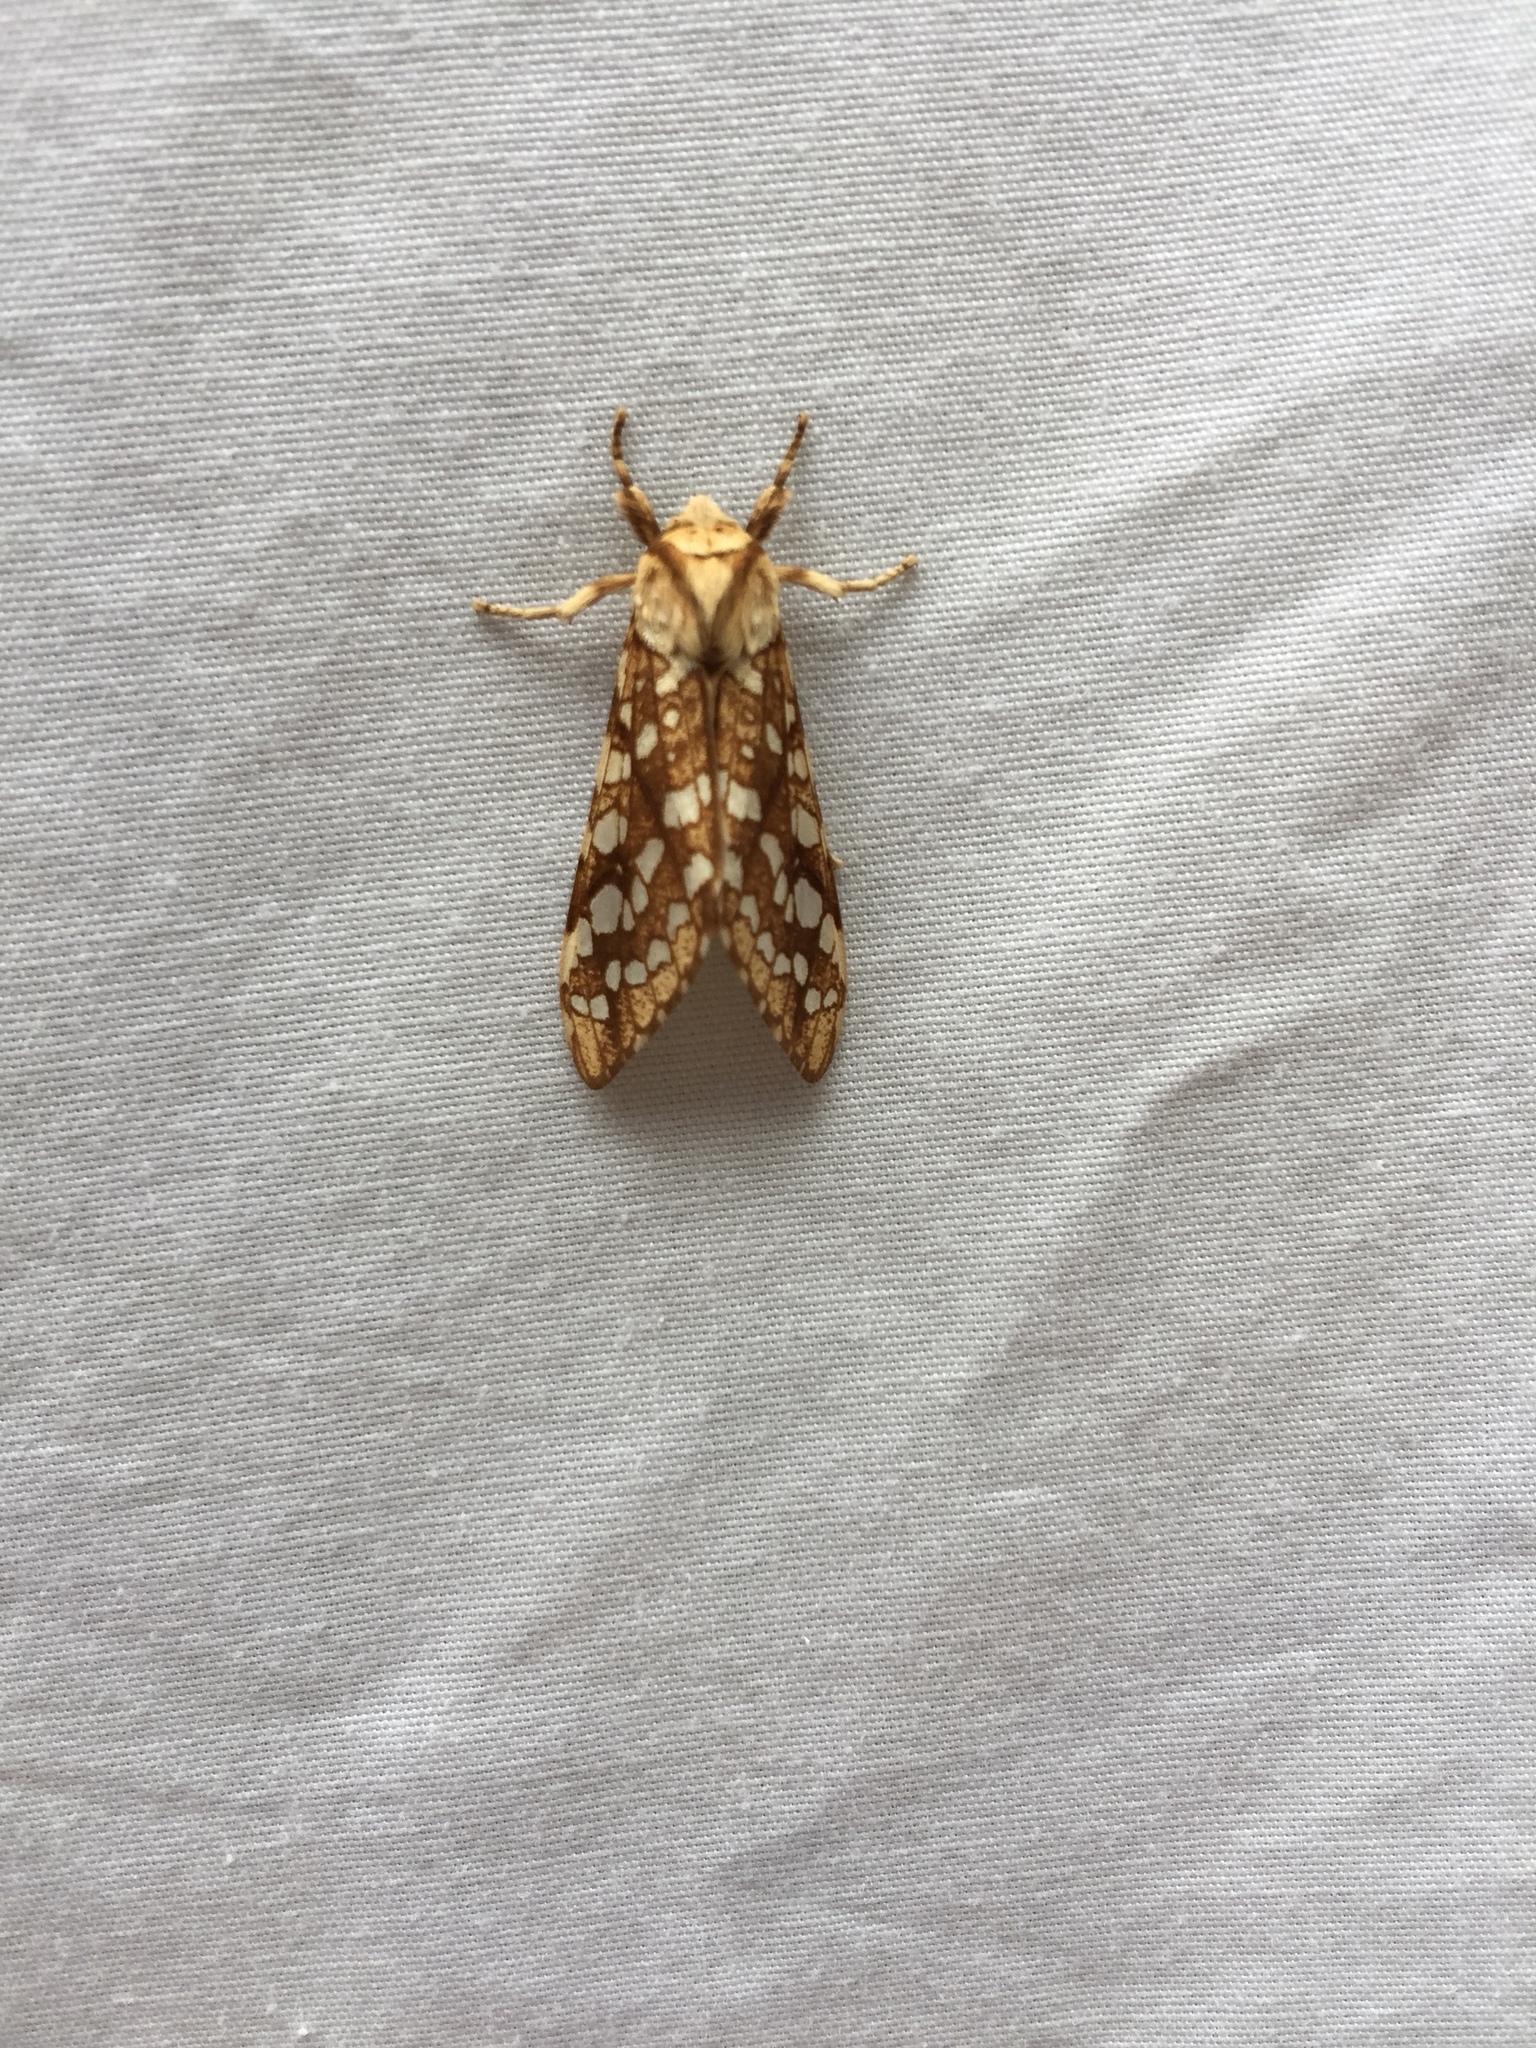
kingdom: Animalia
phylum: Arthropoda
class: Insecta
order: Lepidoptera
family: Erebidae
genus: Lophocampa
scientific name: Lophocampa caryae
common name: Hickory tussock moth
